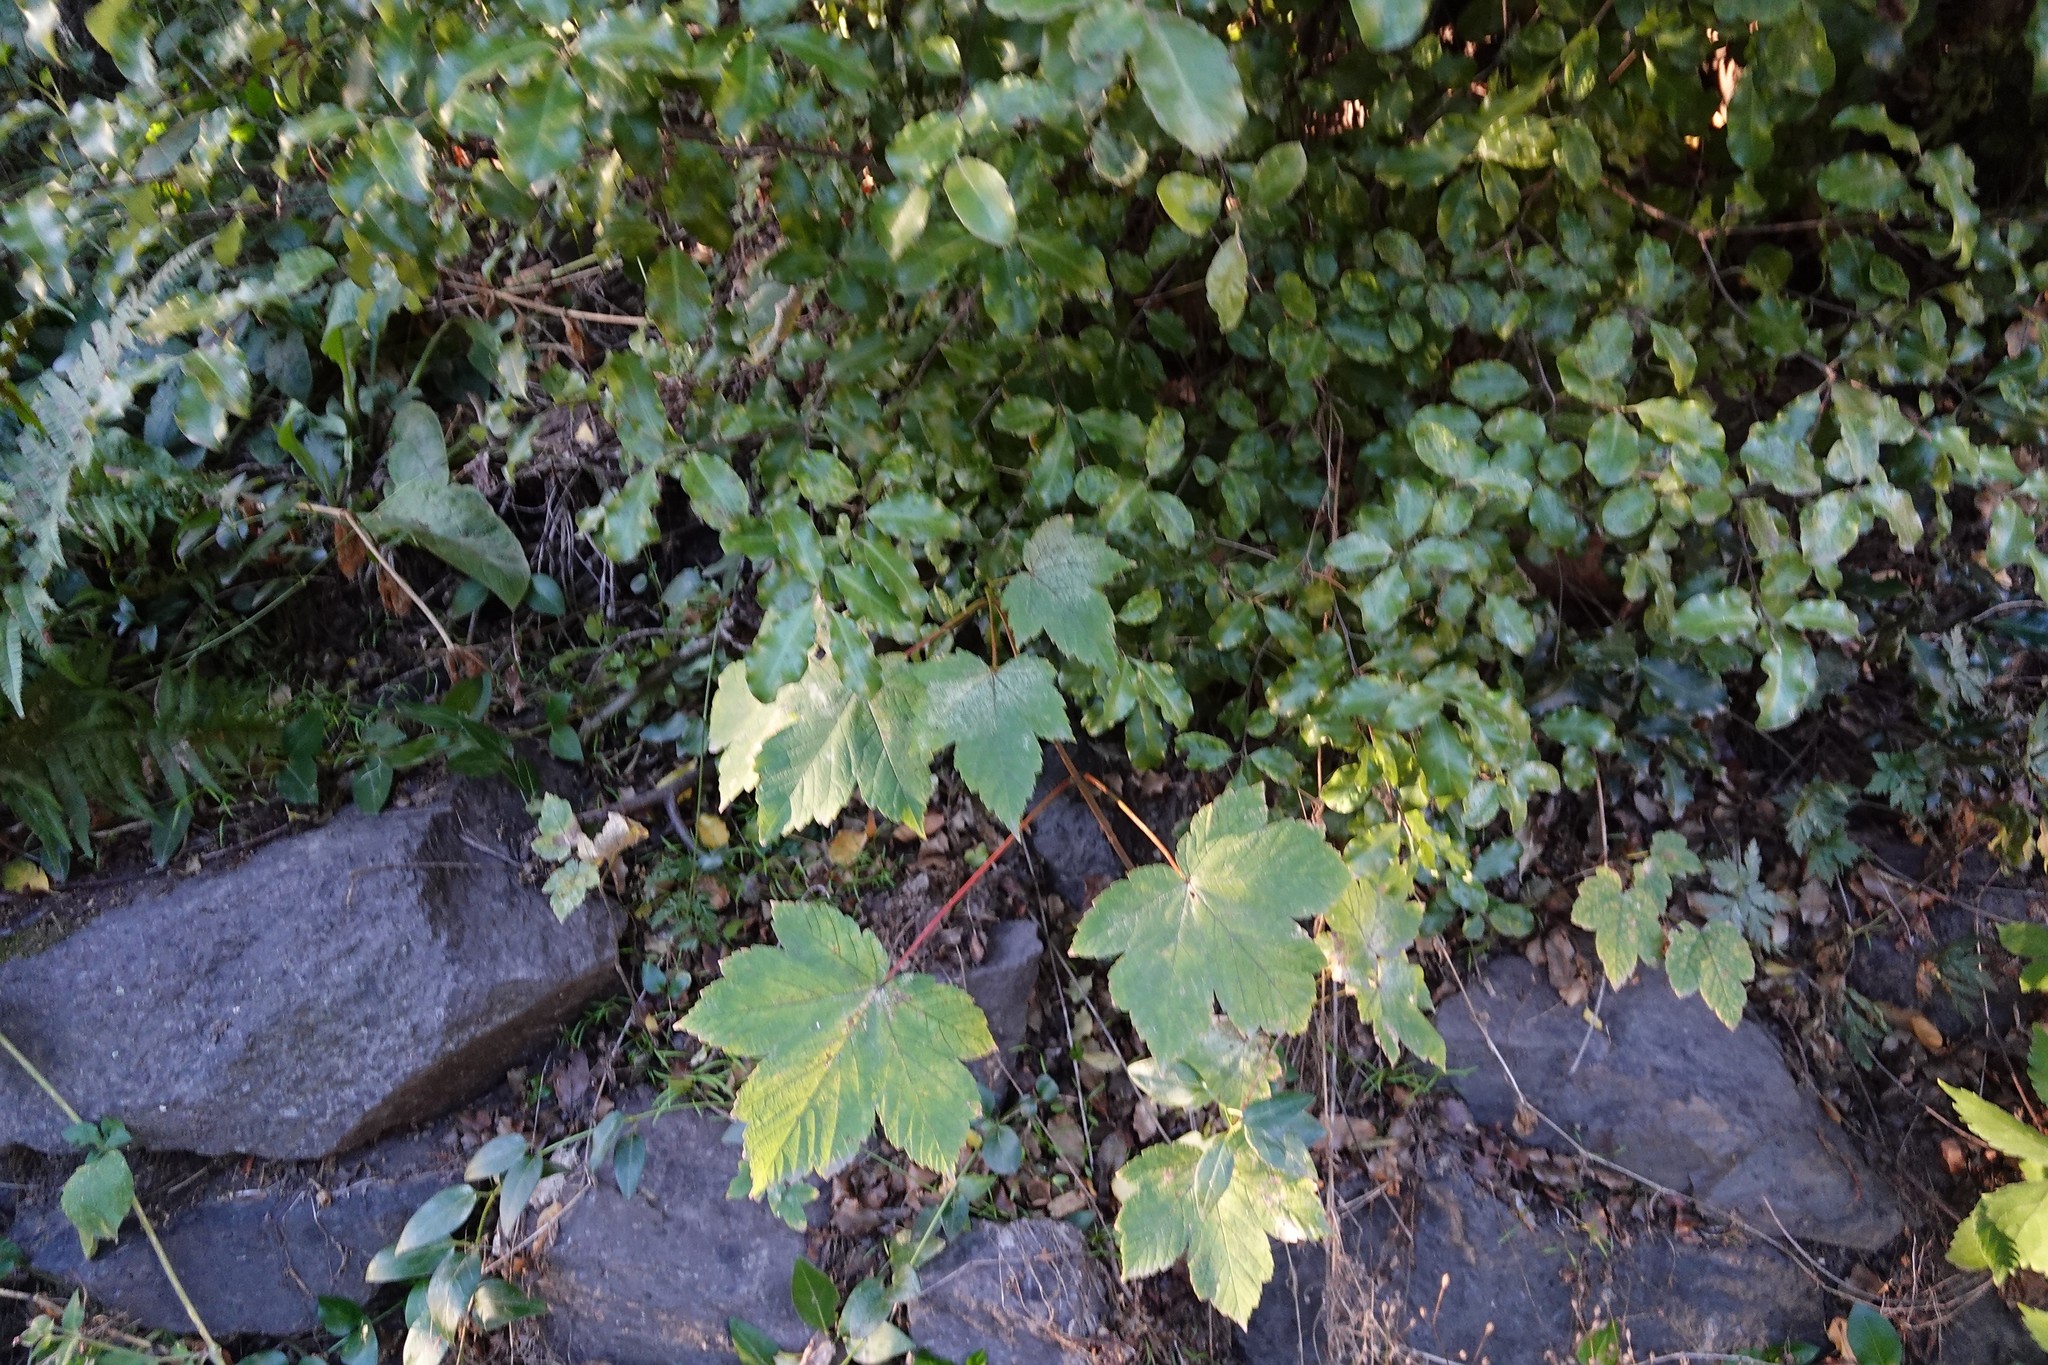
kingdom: Plantae
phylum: Tracheophyta
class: Magnoliopsida
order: Sapindales
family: Sapindaceae
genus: Acer
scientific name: Acer pseudoplatanus
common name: Sycamore
